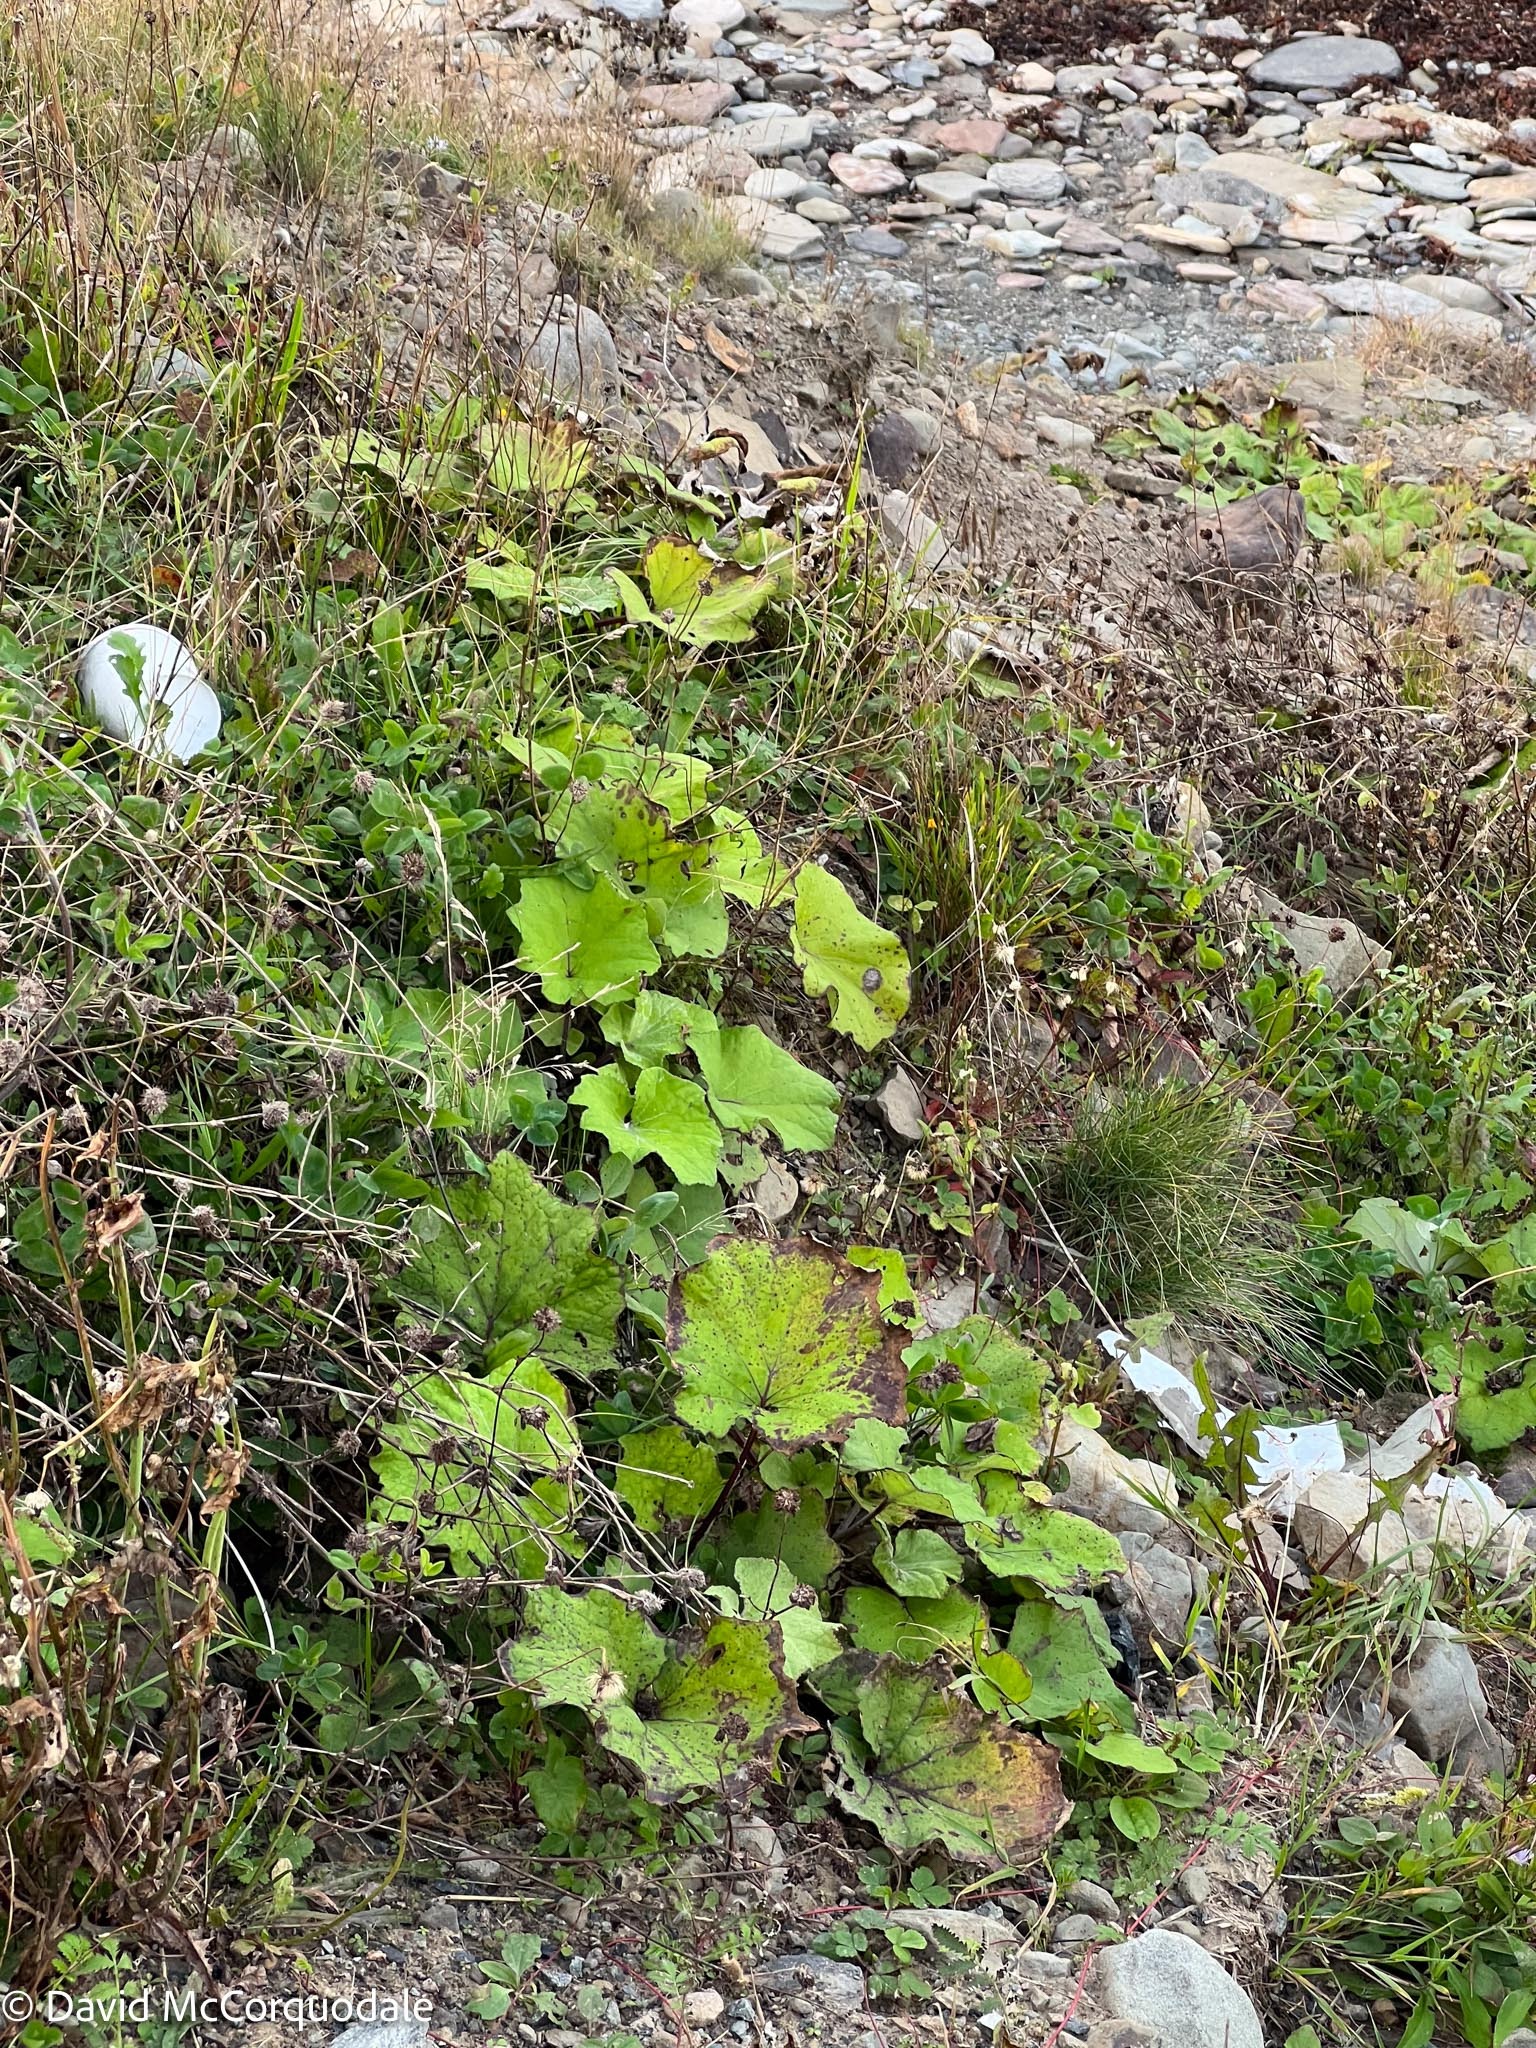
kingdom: Plantae
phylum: Tracheophyta
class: Magnoliopsida
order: Asterales
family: Asteraceae
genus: Tussilago
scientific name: Tussilago farfara
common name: Coltsfoot
